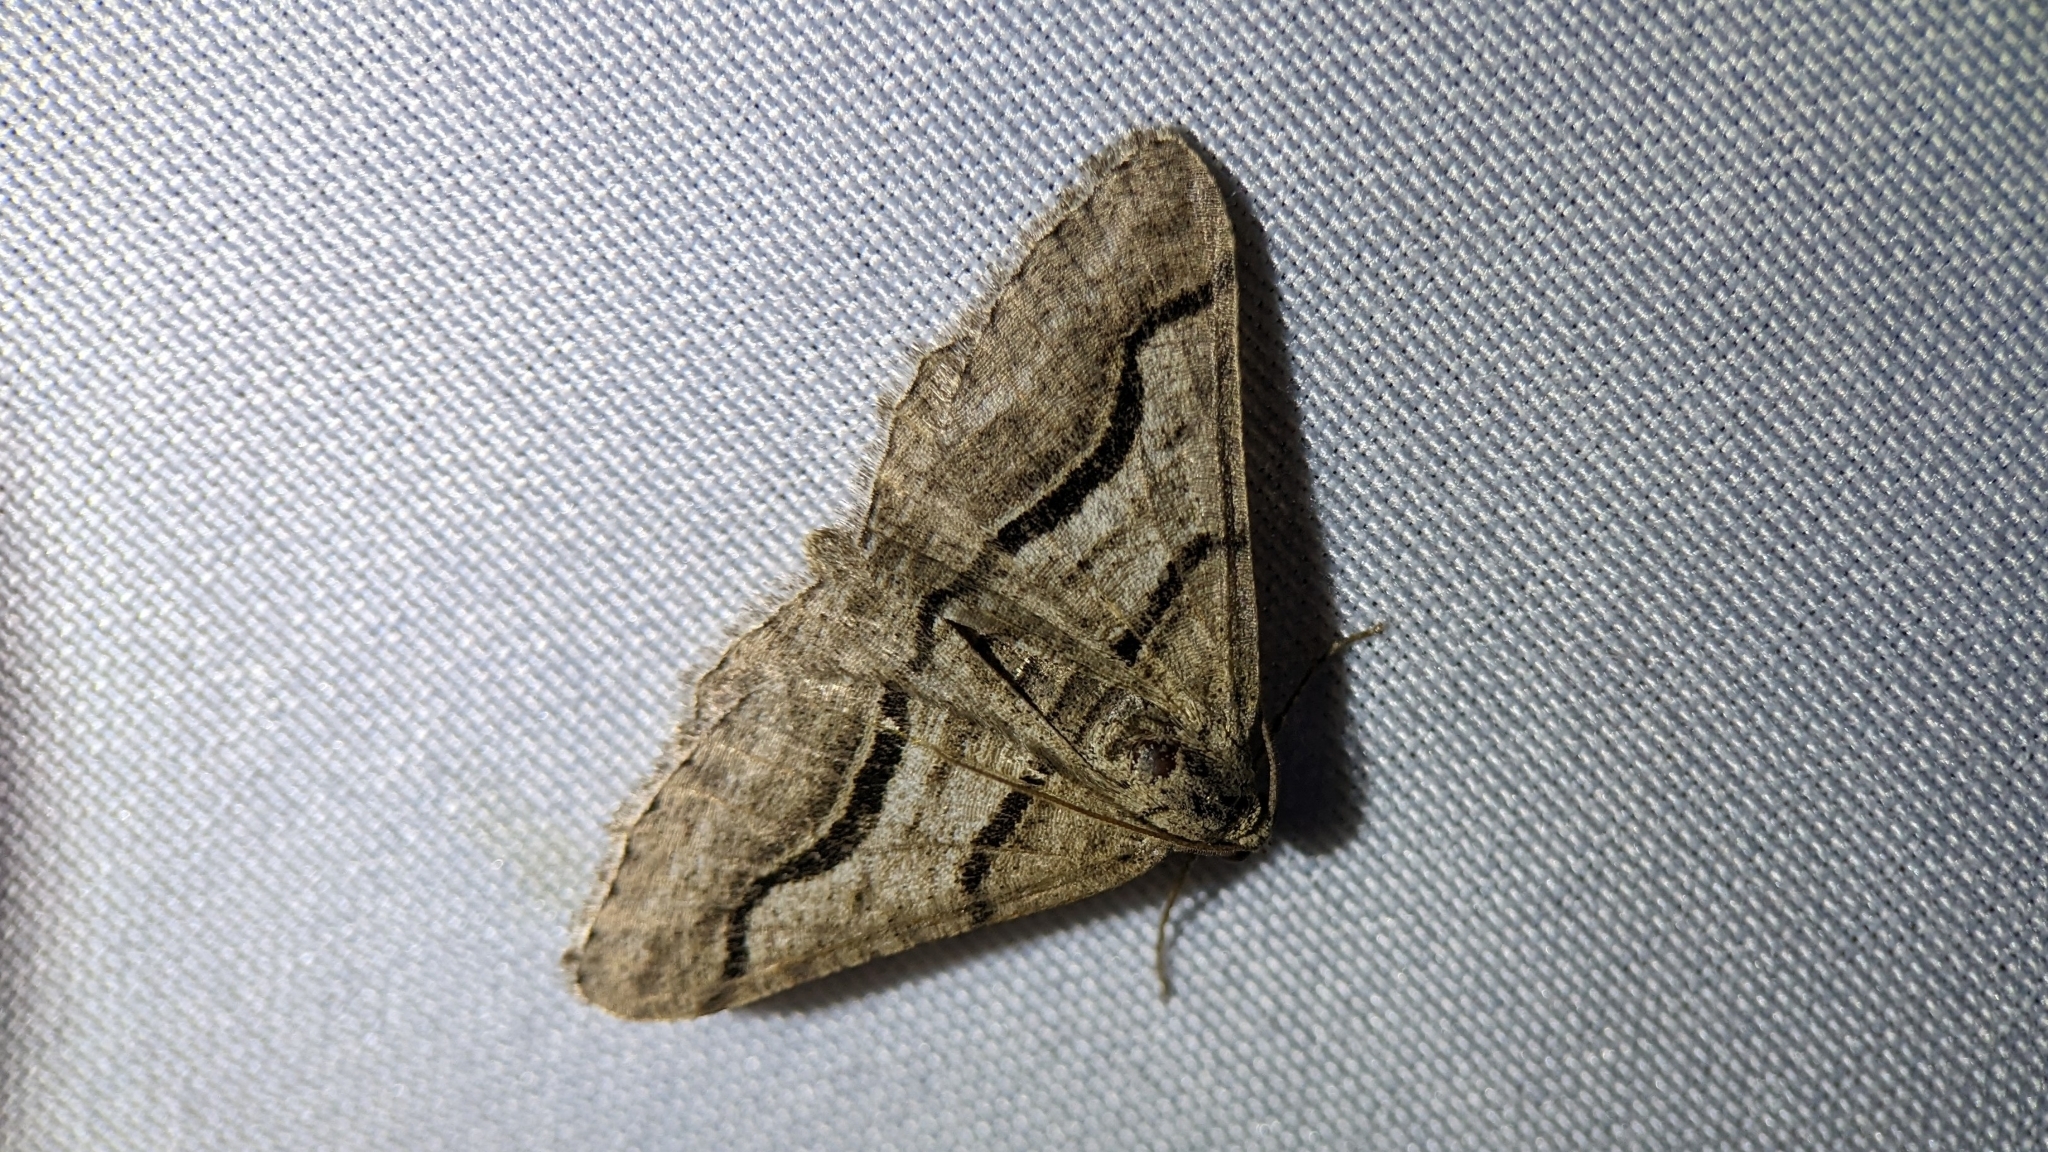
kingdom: Animalia
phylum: Arthropoda
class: Insecta
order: Lepidoptera
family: Geometridae
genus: Digrammia
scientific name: Digrammia continuata
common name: Curve-lined angle
